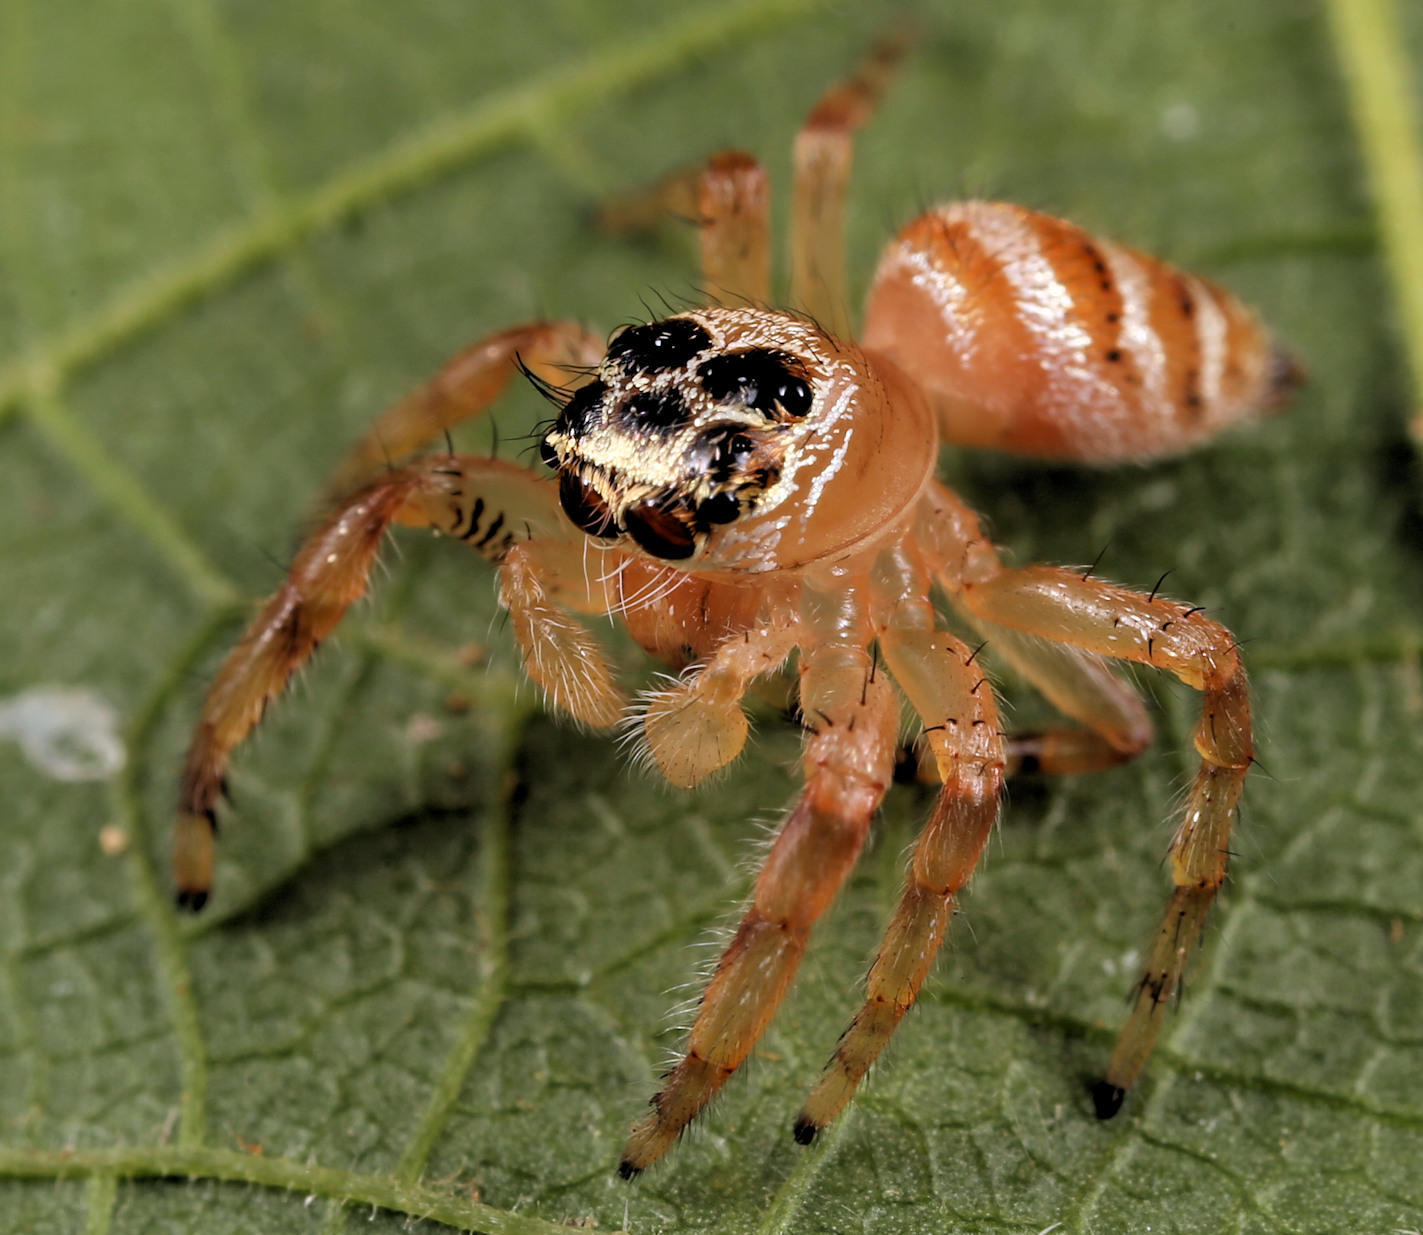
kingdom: Animalia
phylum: Arthropoda
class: Arachnida
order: Araneae
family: Salticidae
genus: Thyene
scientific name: Thyene natalii
